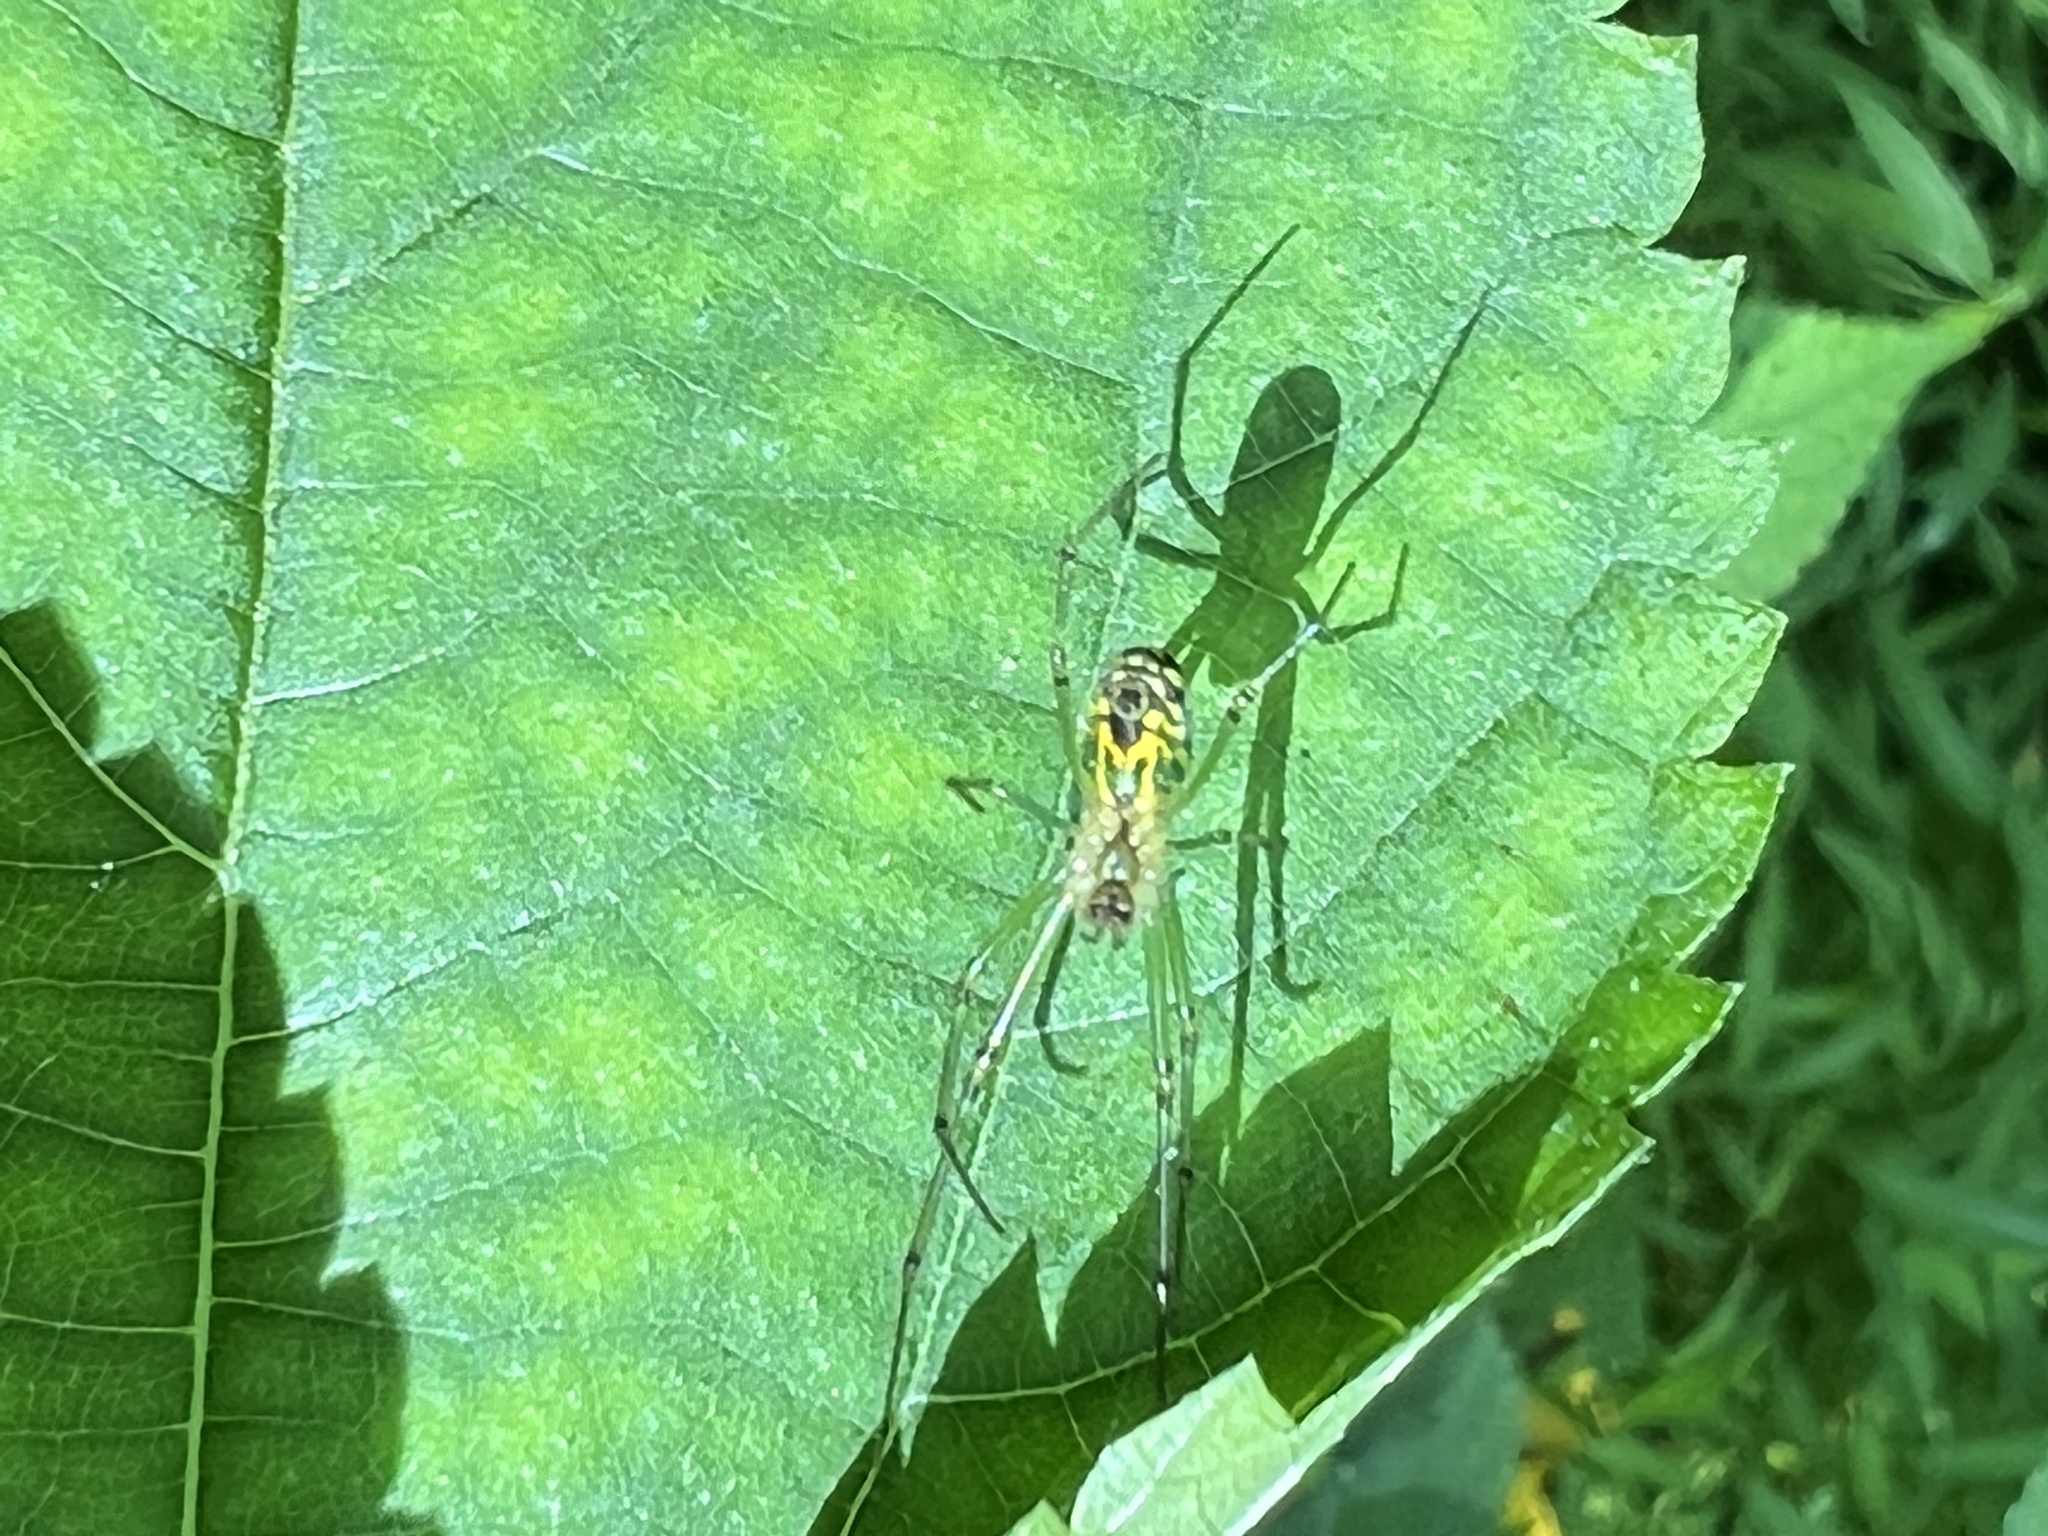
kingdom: Animalia
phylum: Arthropoda
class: Arachnida
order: Araneae
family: Tetragnathidae
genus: Leucauge
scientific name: Leucauge venusta
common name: Longjawed orb weavers
